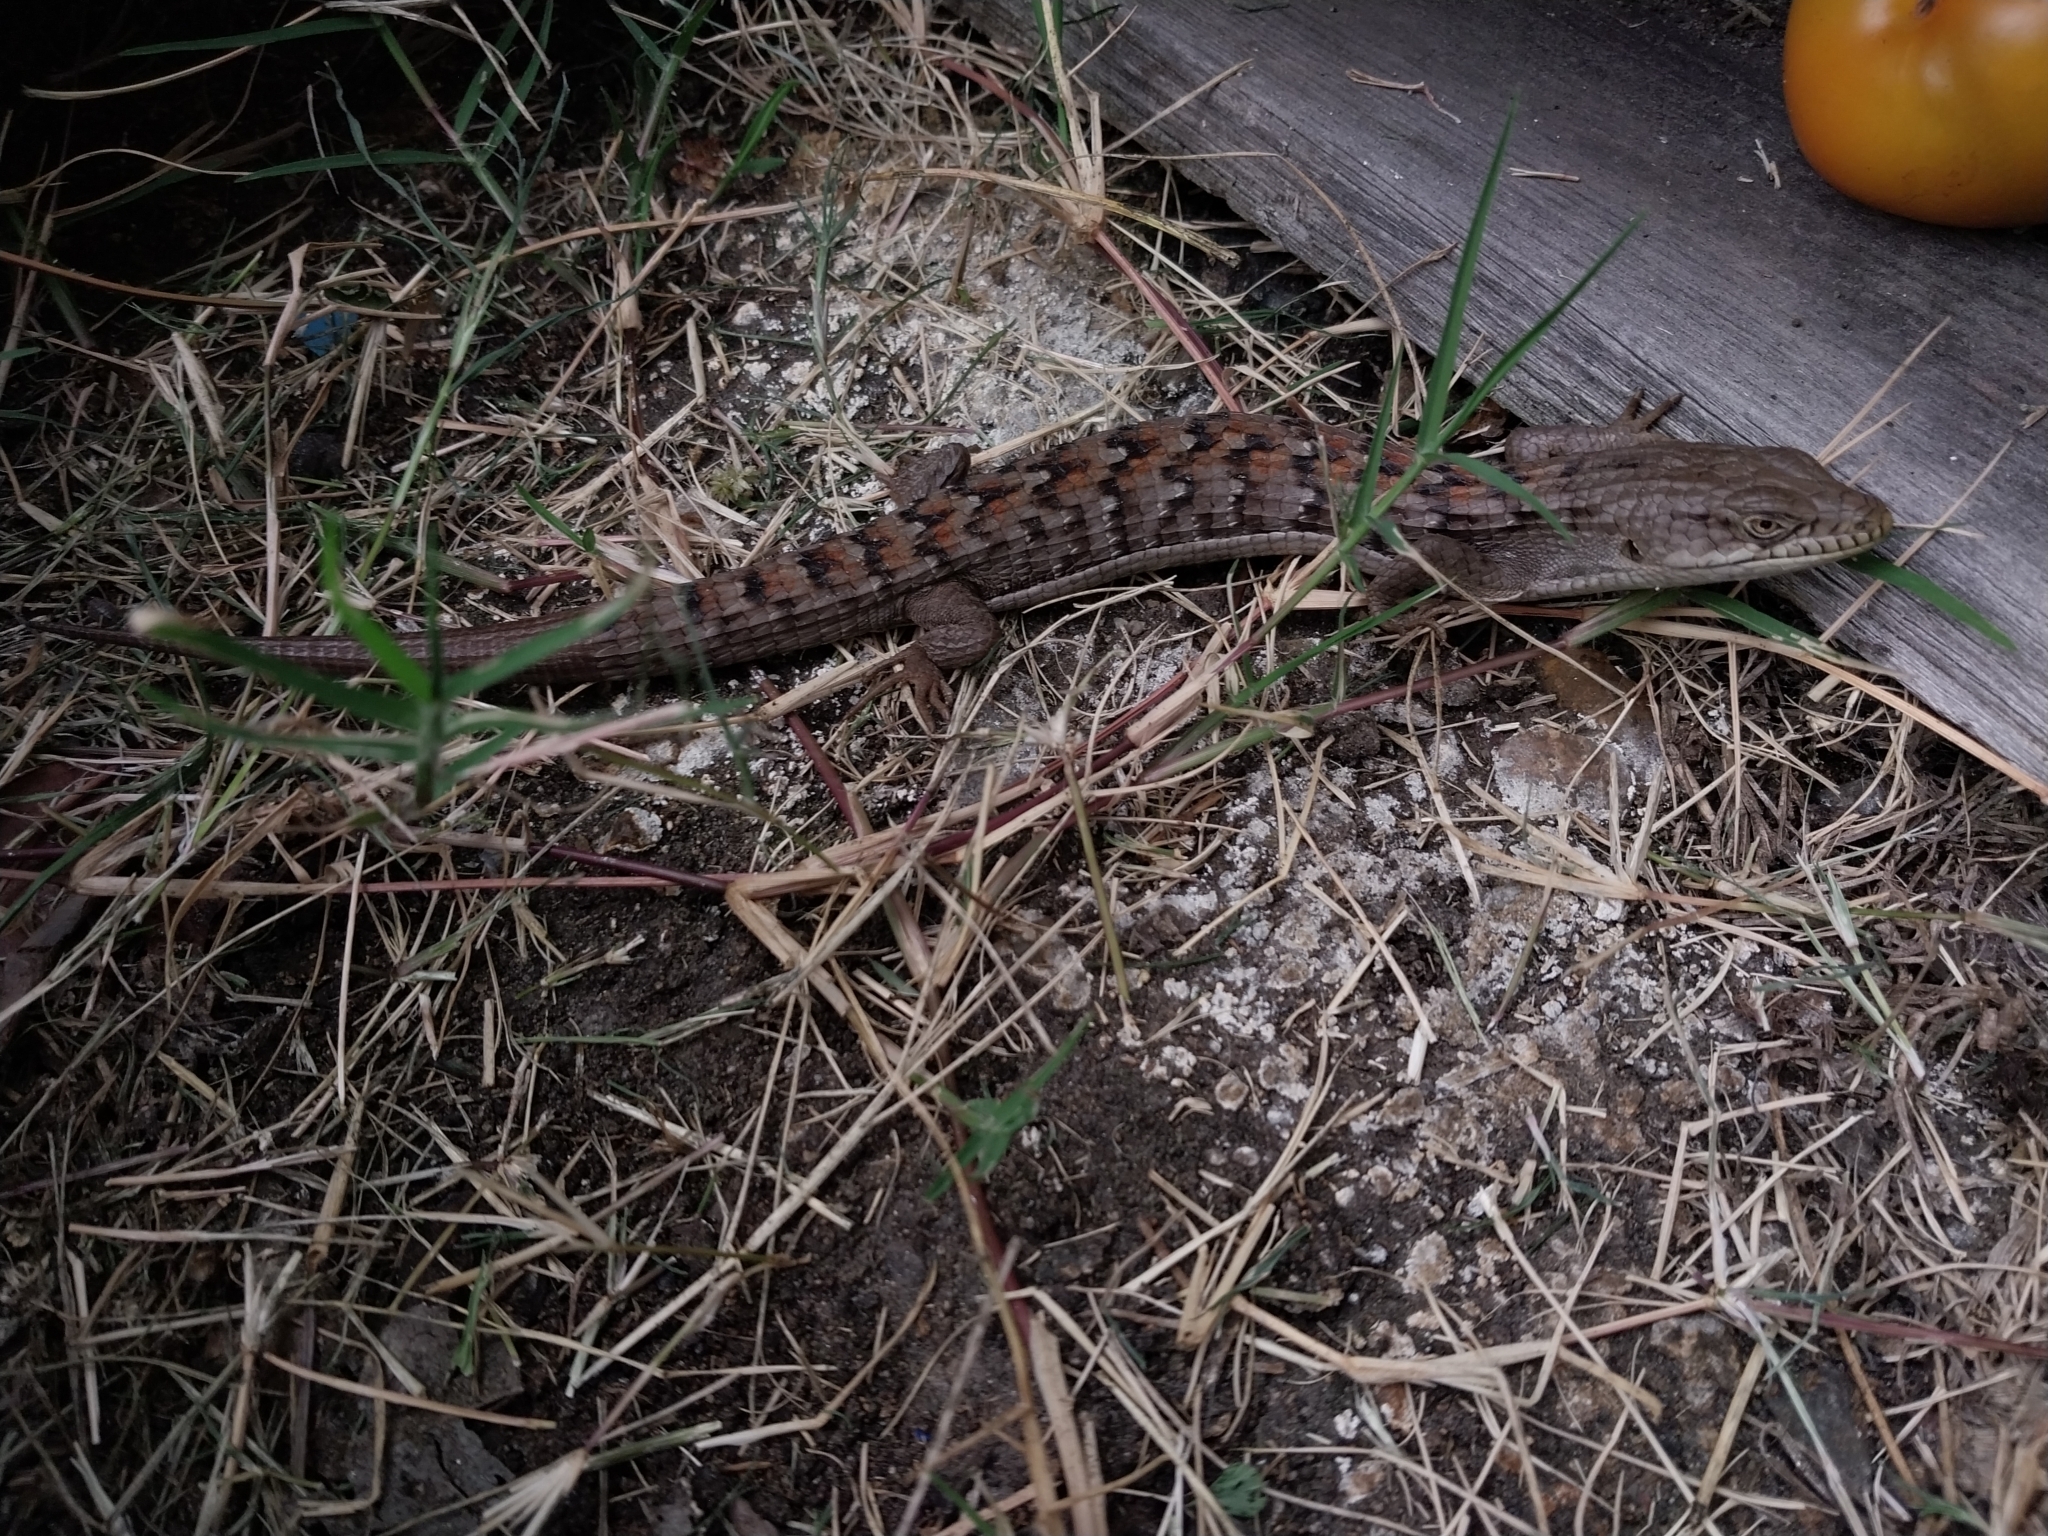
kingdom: Animalia
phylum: Chordata
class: Squamata
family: Anguidae
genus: Elgaria
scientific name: Elgaria multicarinata
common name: Southern alligator lizard
